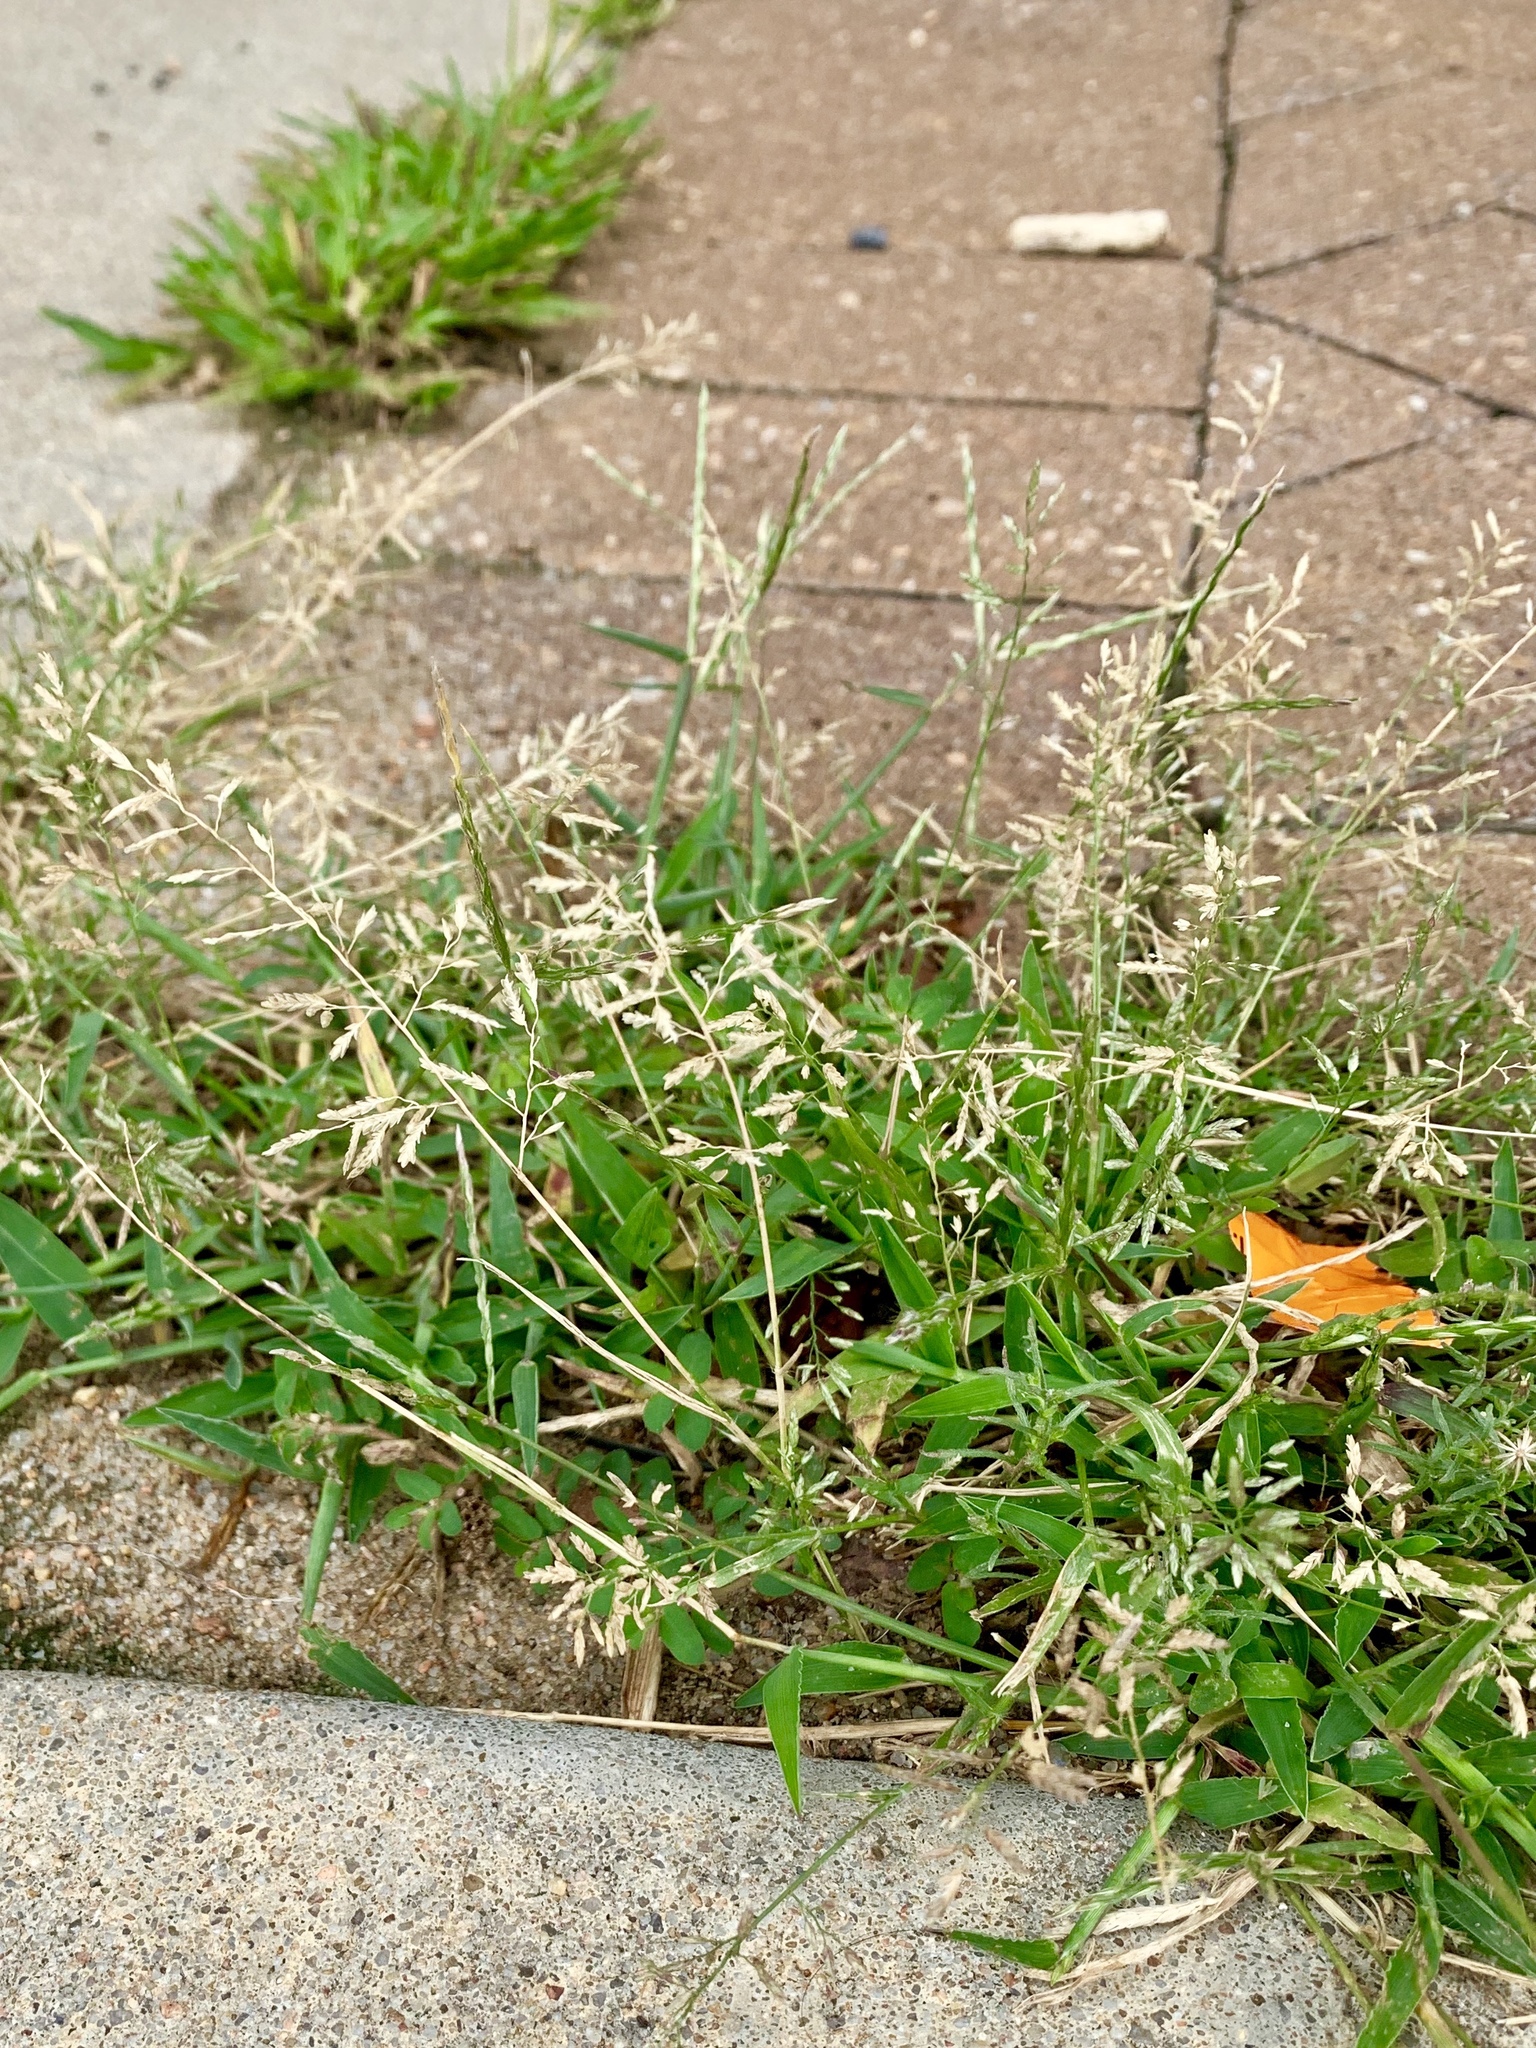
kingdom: Plantae
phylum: Tracheophyta
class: Liliopsida
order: Poales
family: Poaceae
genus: Eragrostis
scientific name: Eragrostis cilianensis
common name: Stinkgrass
